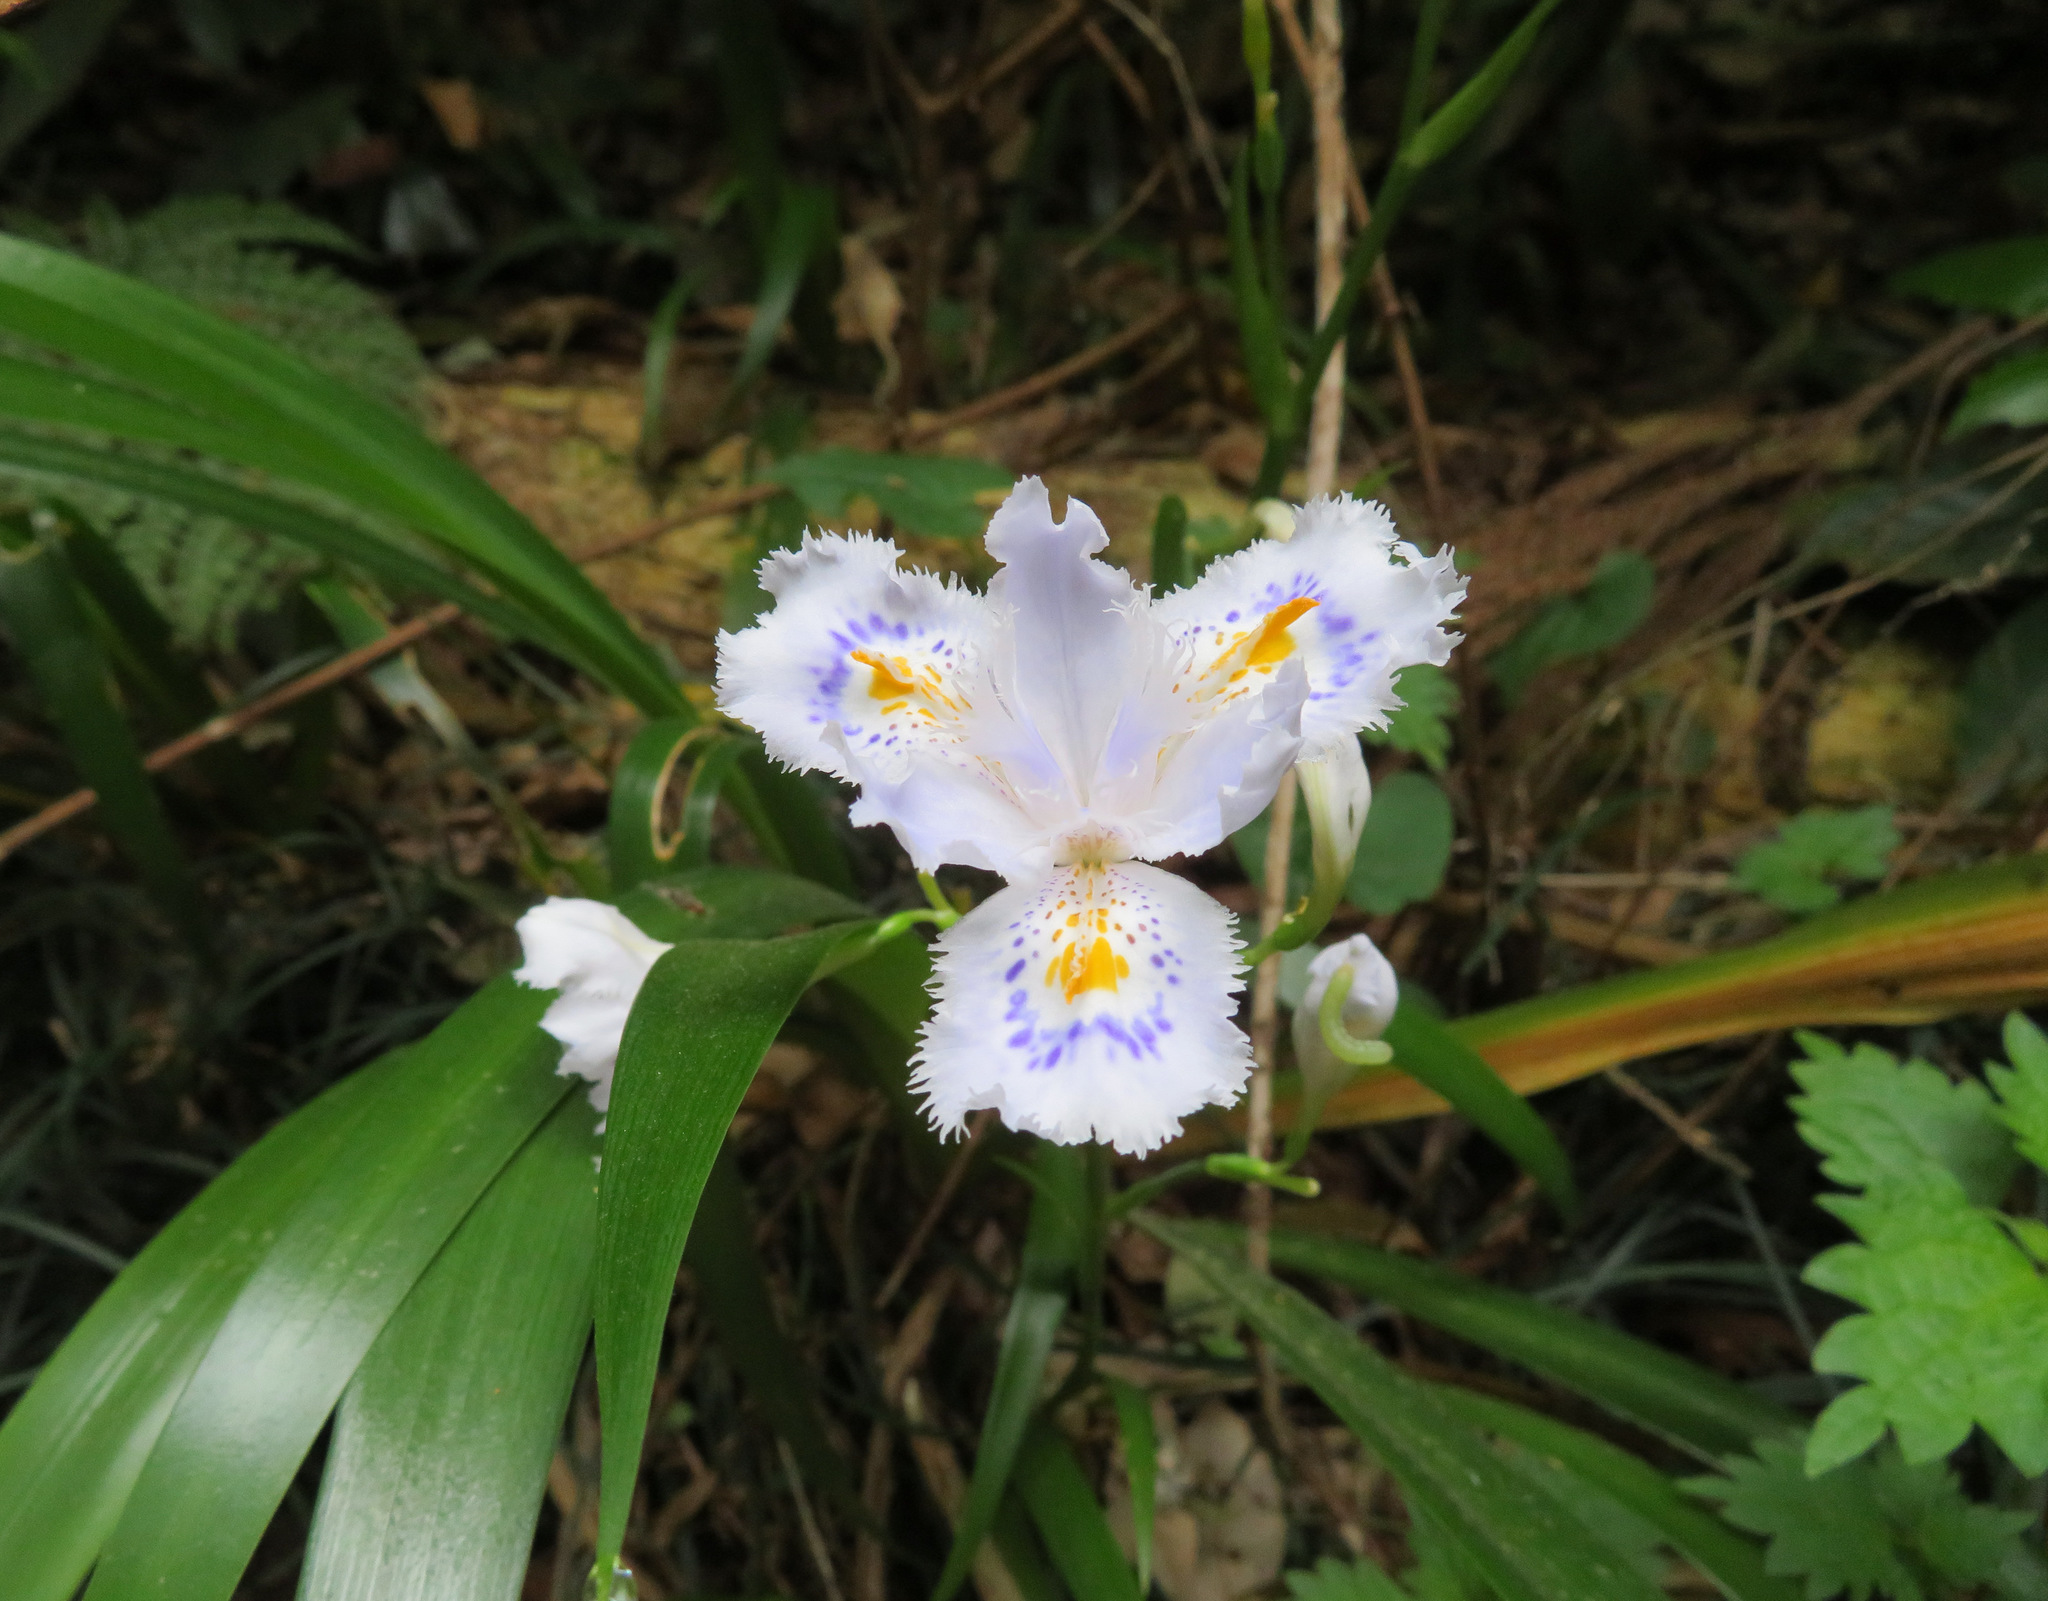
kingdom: Plantae
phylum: Tracheophyta
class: Liliopsida
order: Asparagales
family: Iridaceae
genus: Iris
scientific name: Iris japonica
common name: Butterfly-flower
